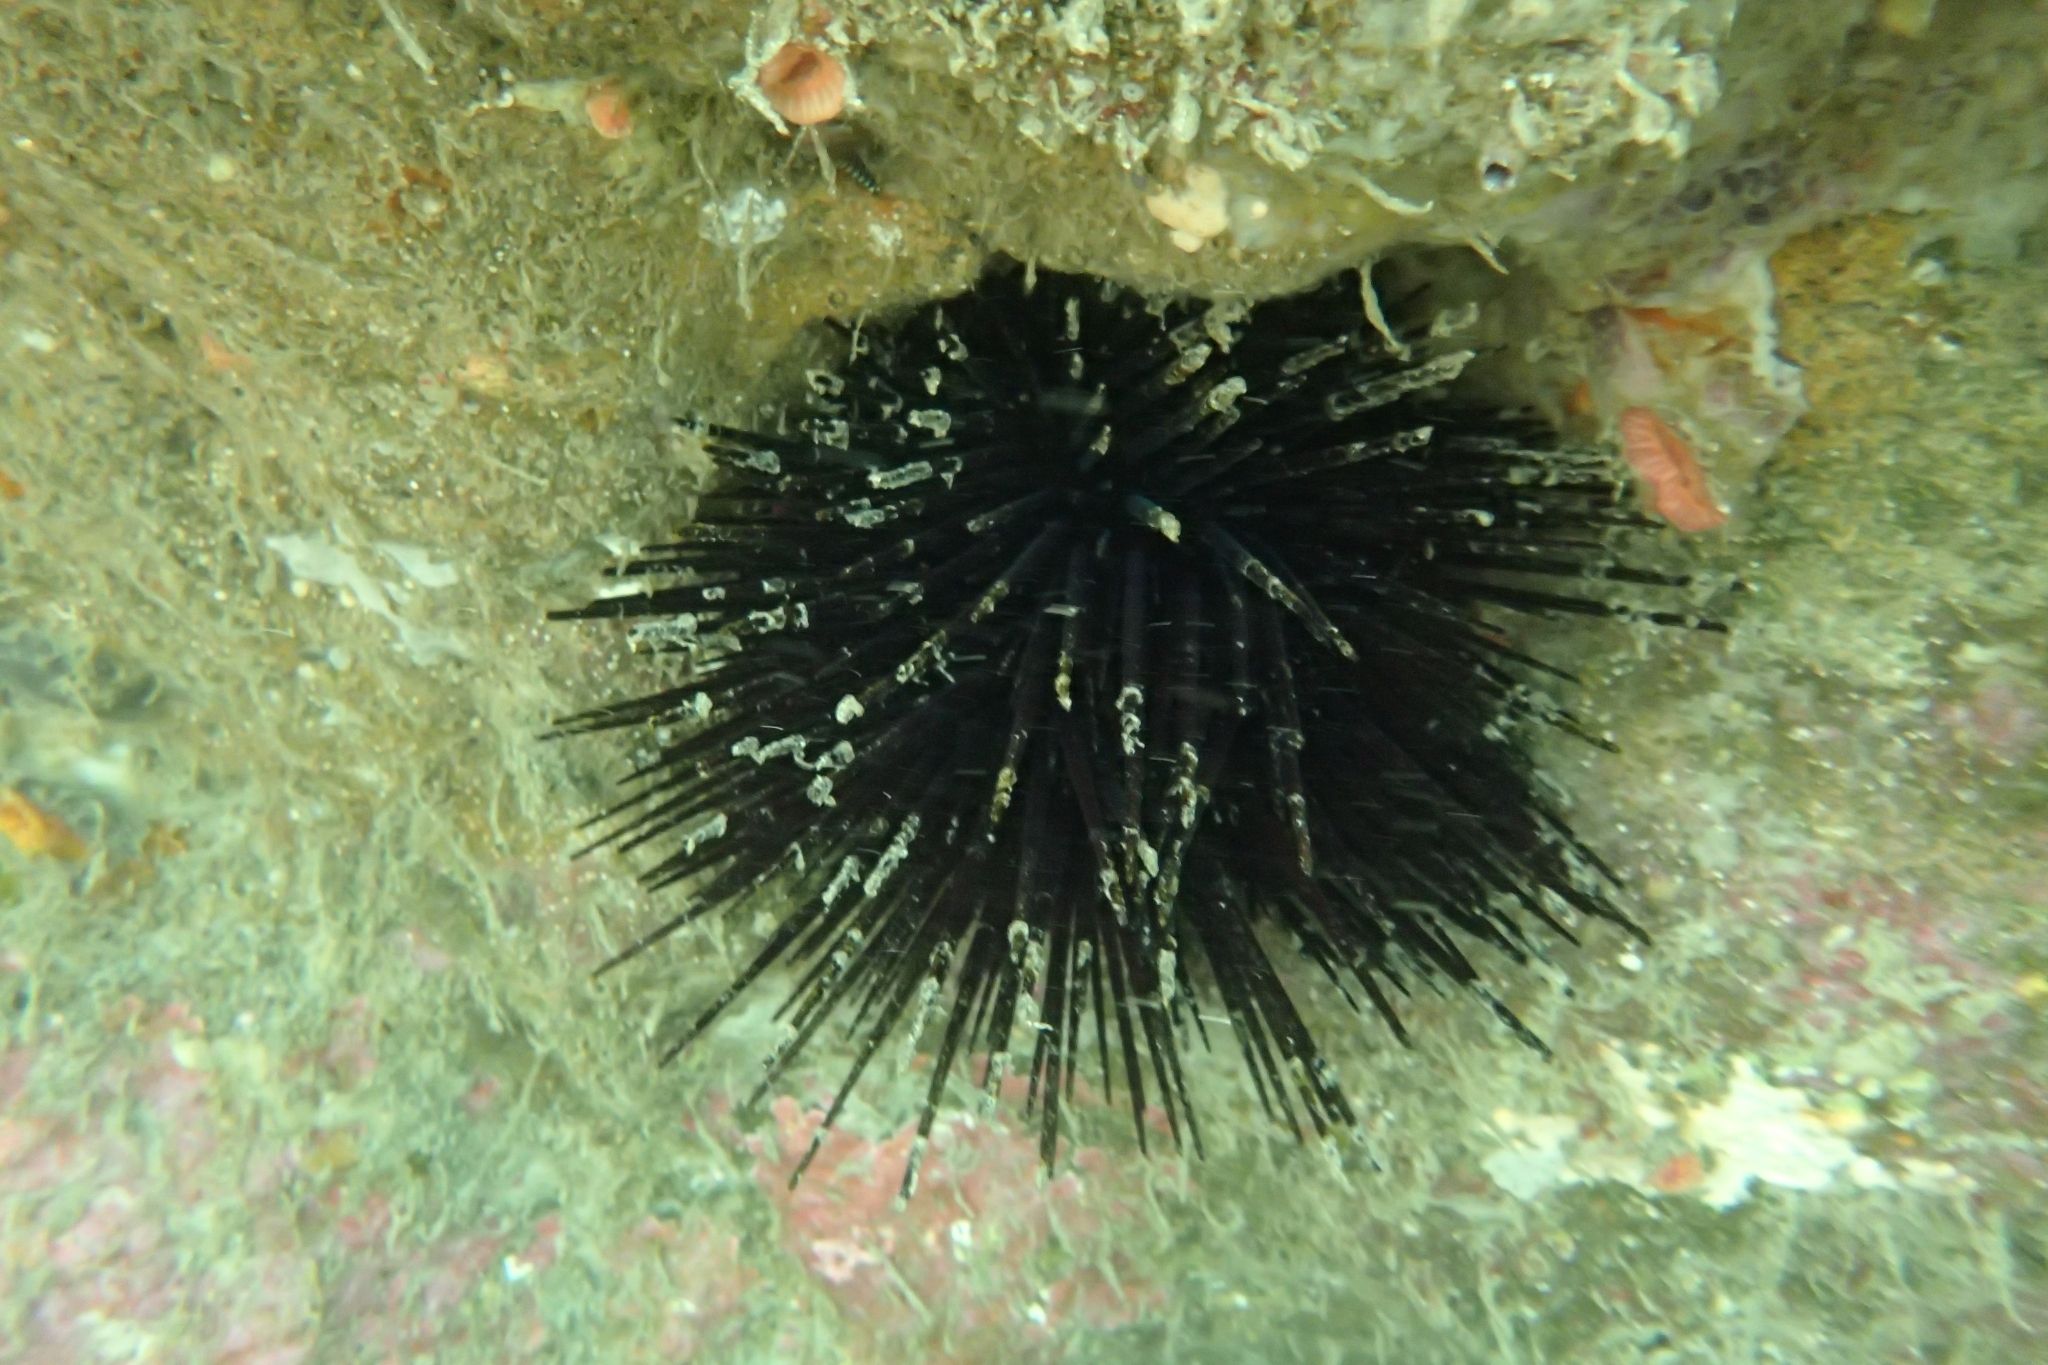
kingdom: Animalia
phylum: Echinodermata
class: Echinoidea
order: Diadematoida
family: Diadematidae
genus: Centrostephanus
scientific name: Centrostephanus rodgersii
